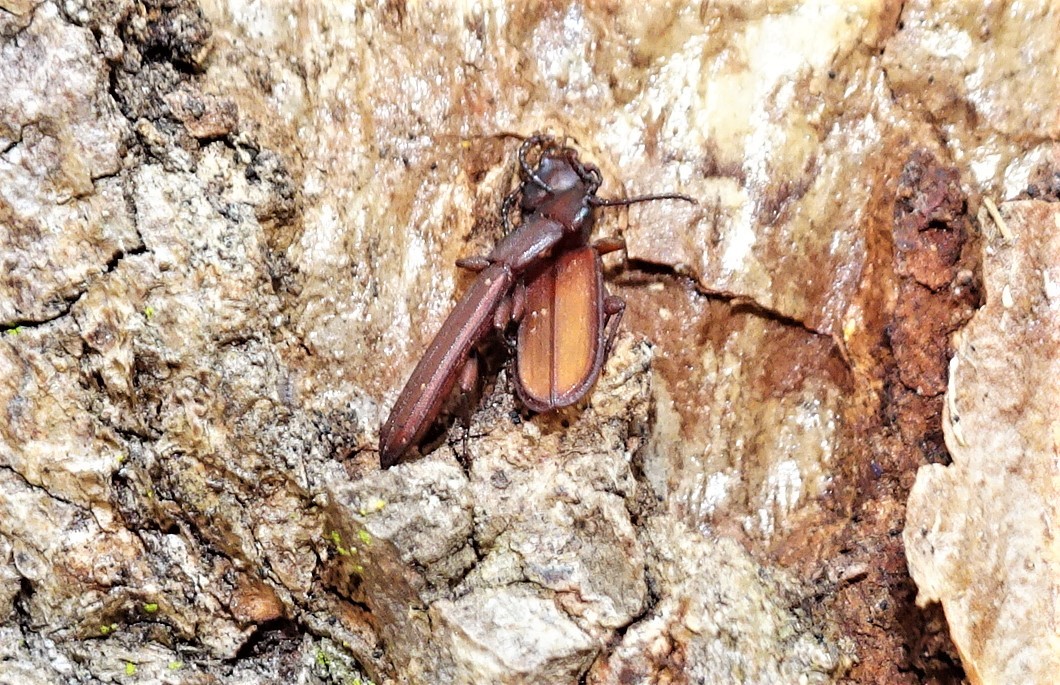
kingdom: Animalia
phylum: Arthropoda
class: Insecta
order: Coleoptera
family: Cucujidae
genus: Platisus
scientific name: Platisus
